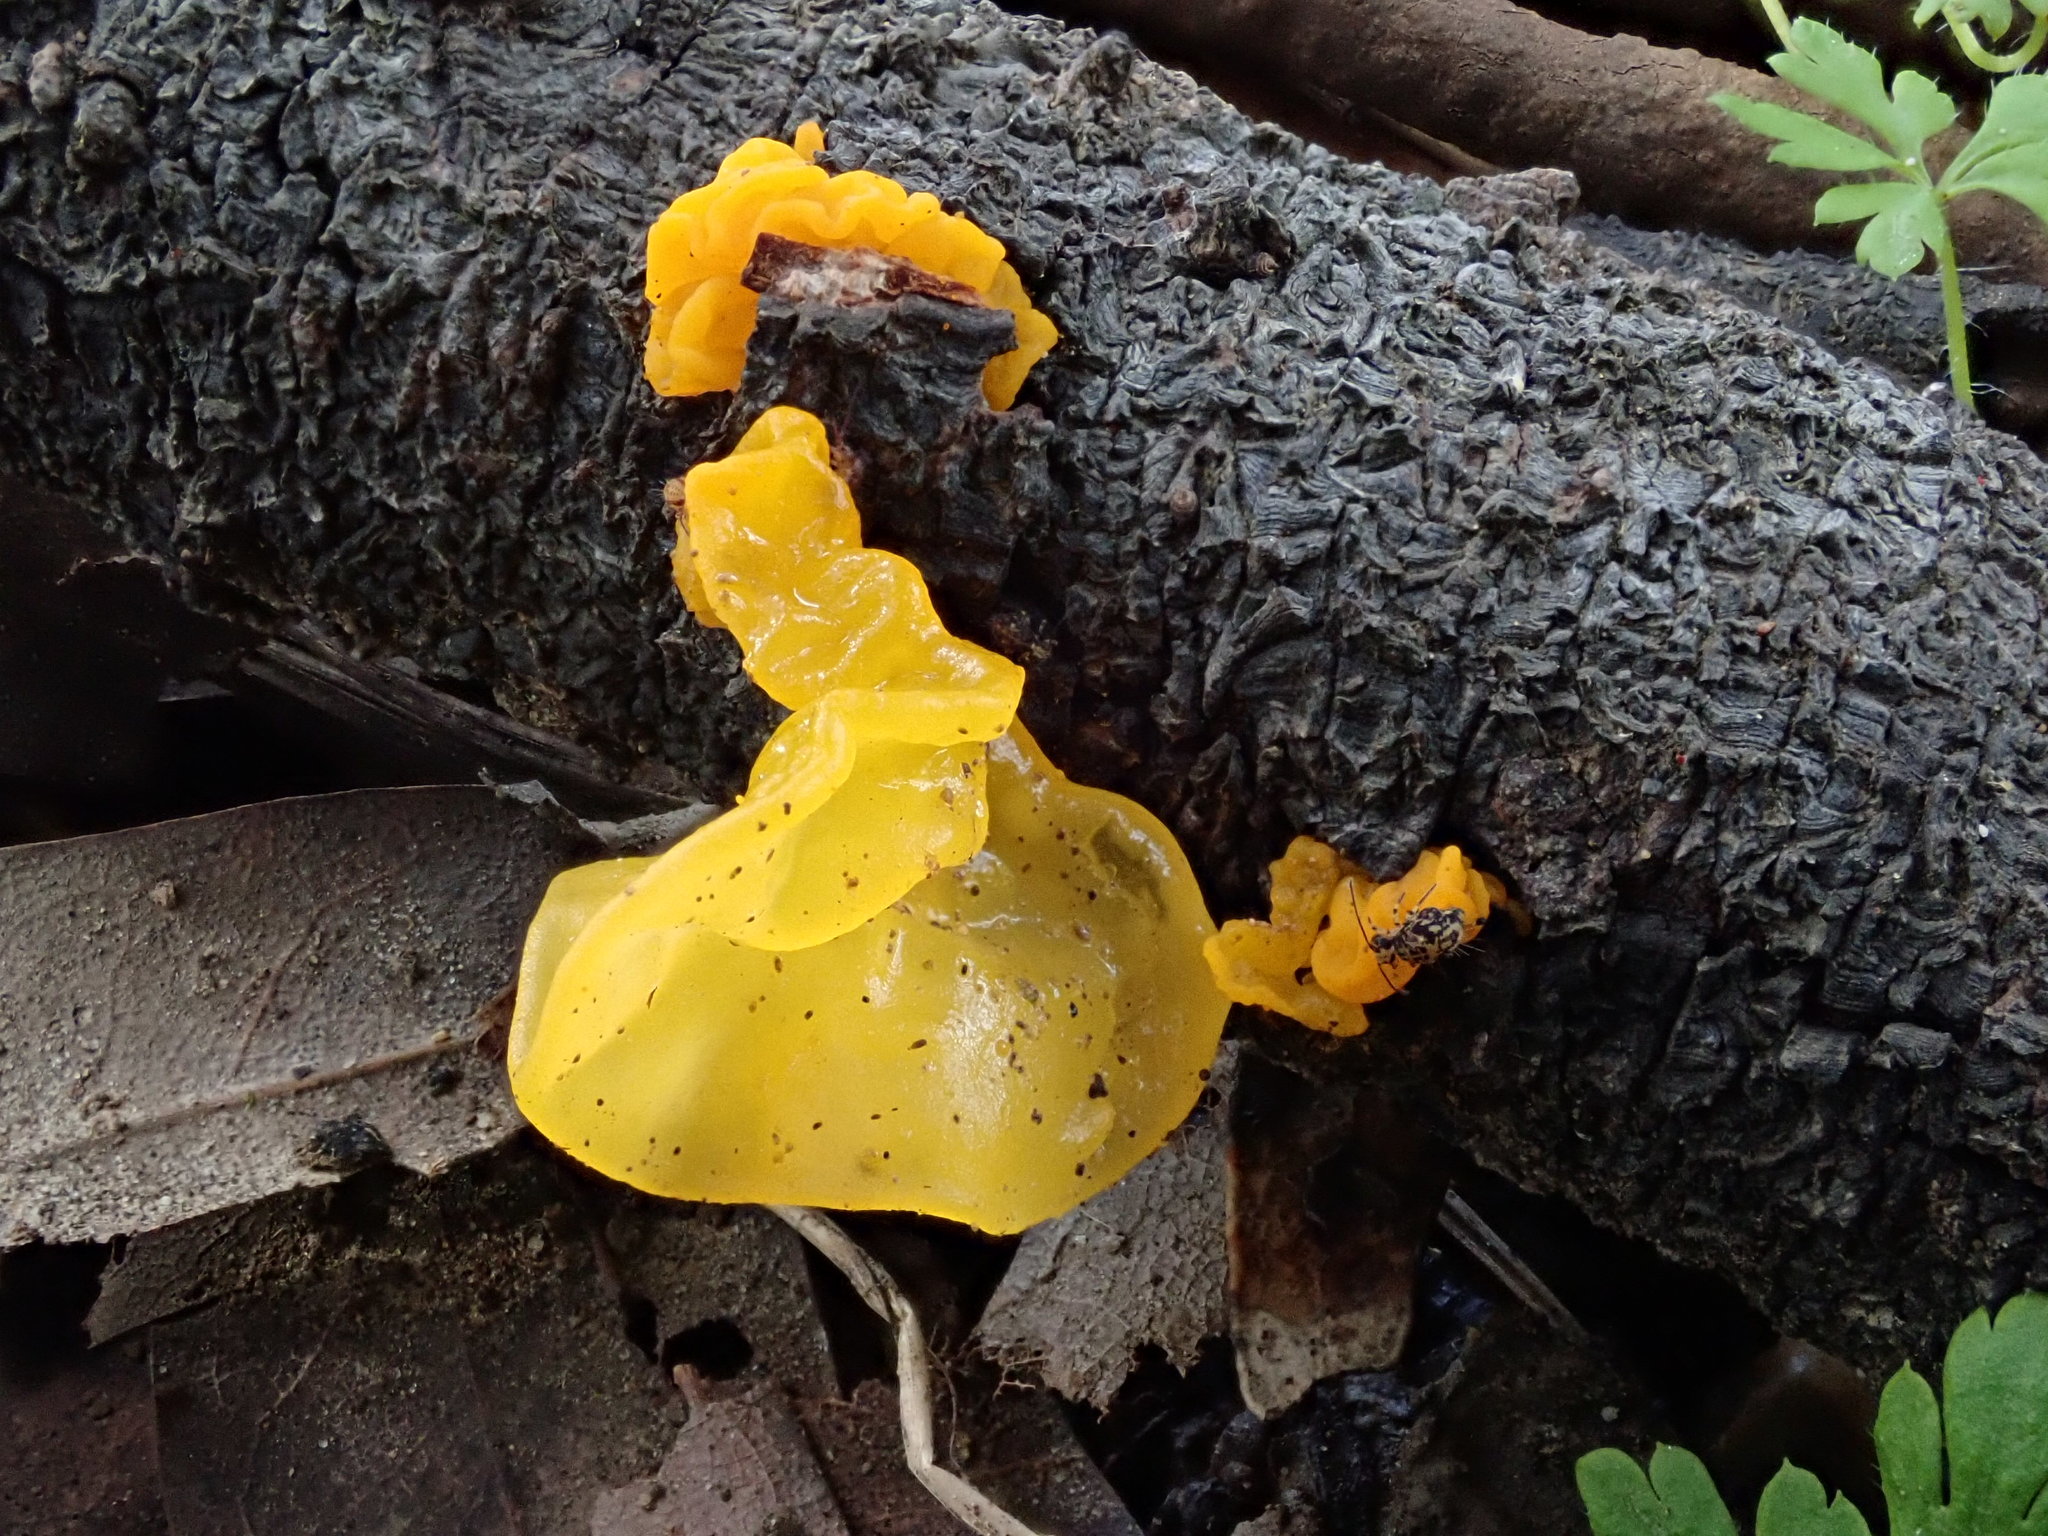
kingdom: Fungi
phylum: Basidiomycota
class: Tremellomycetes
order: Tremellales
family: Naemateliaceae
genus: Naematelia
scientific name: Naematelia aurantia
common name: Golden ear
